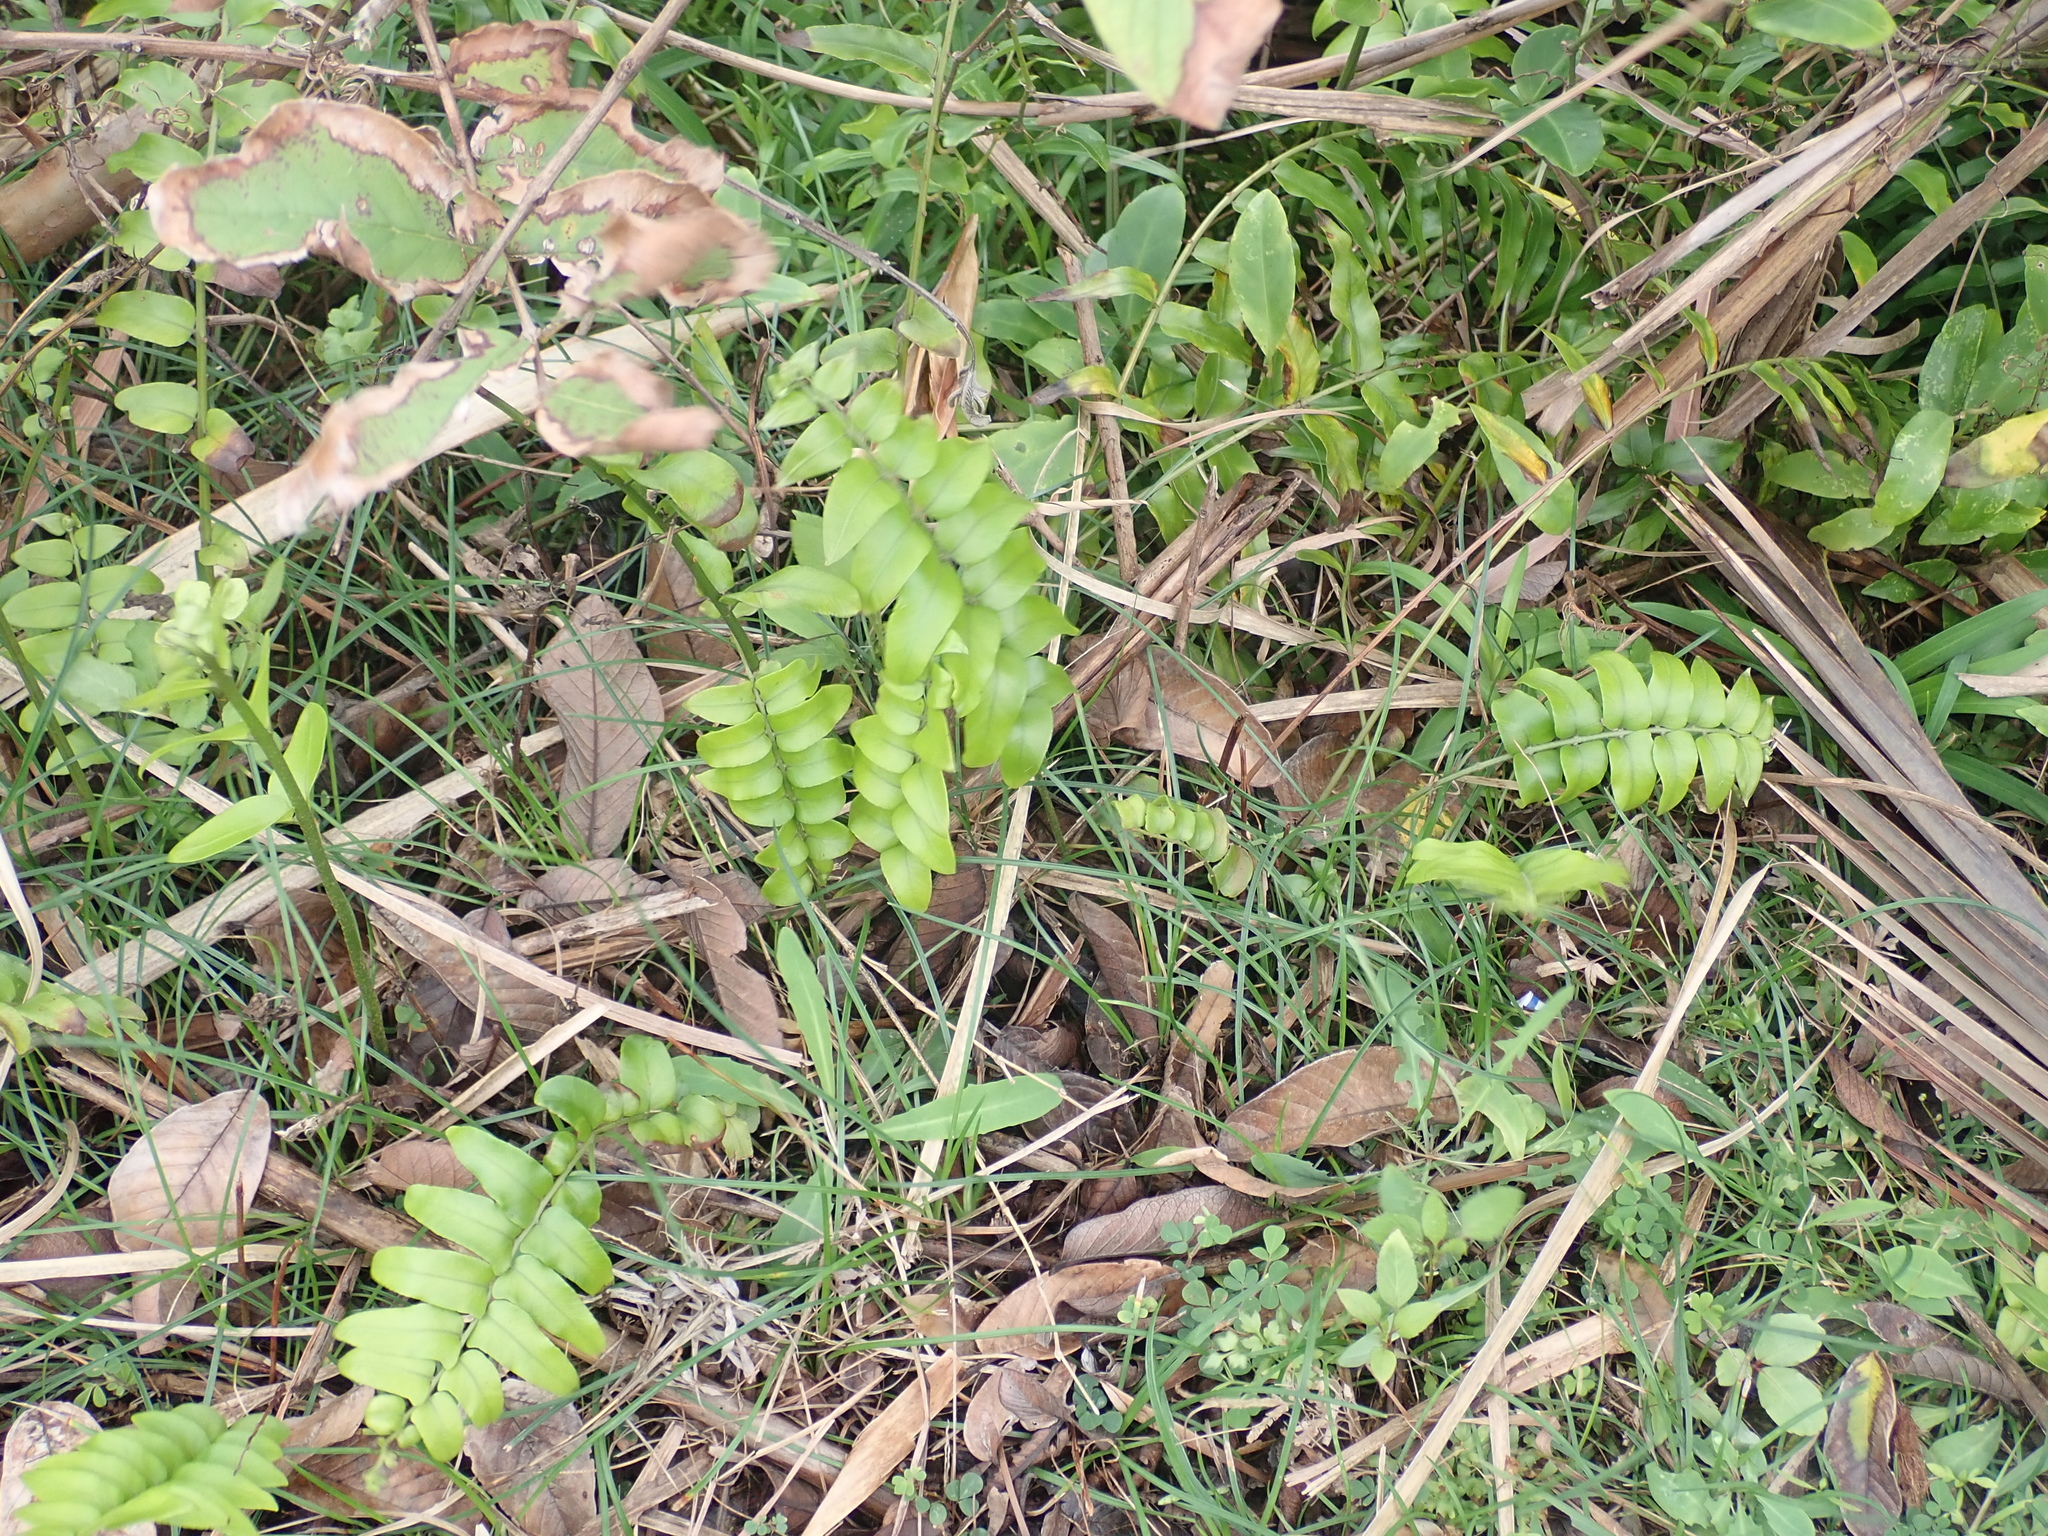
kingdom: Plantae
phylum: Tracheophyta
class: Polypodiopsida
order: Polypodiales
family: Nephrolepidaceae
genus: Nephrolepis
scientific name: Nephrolepis biserrata
